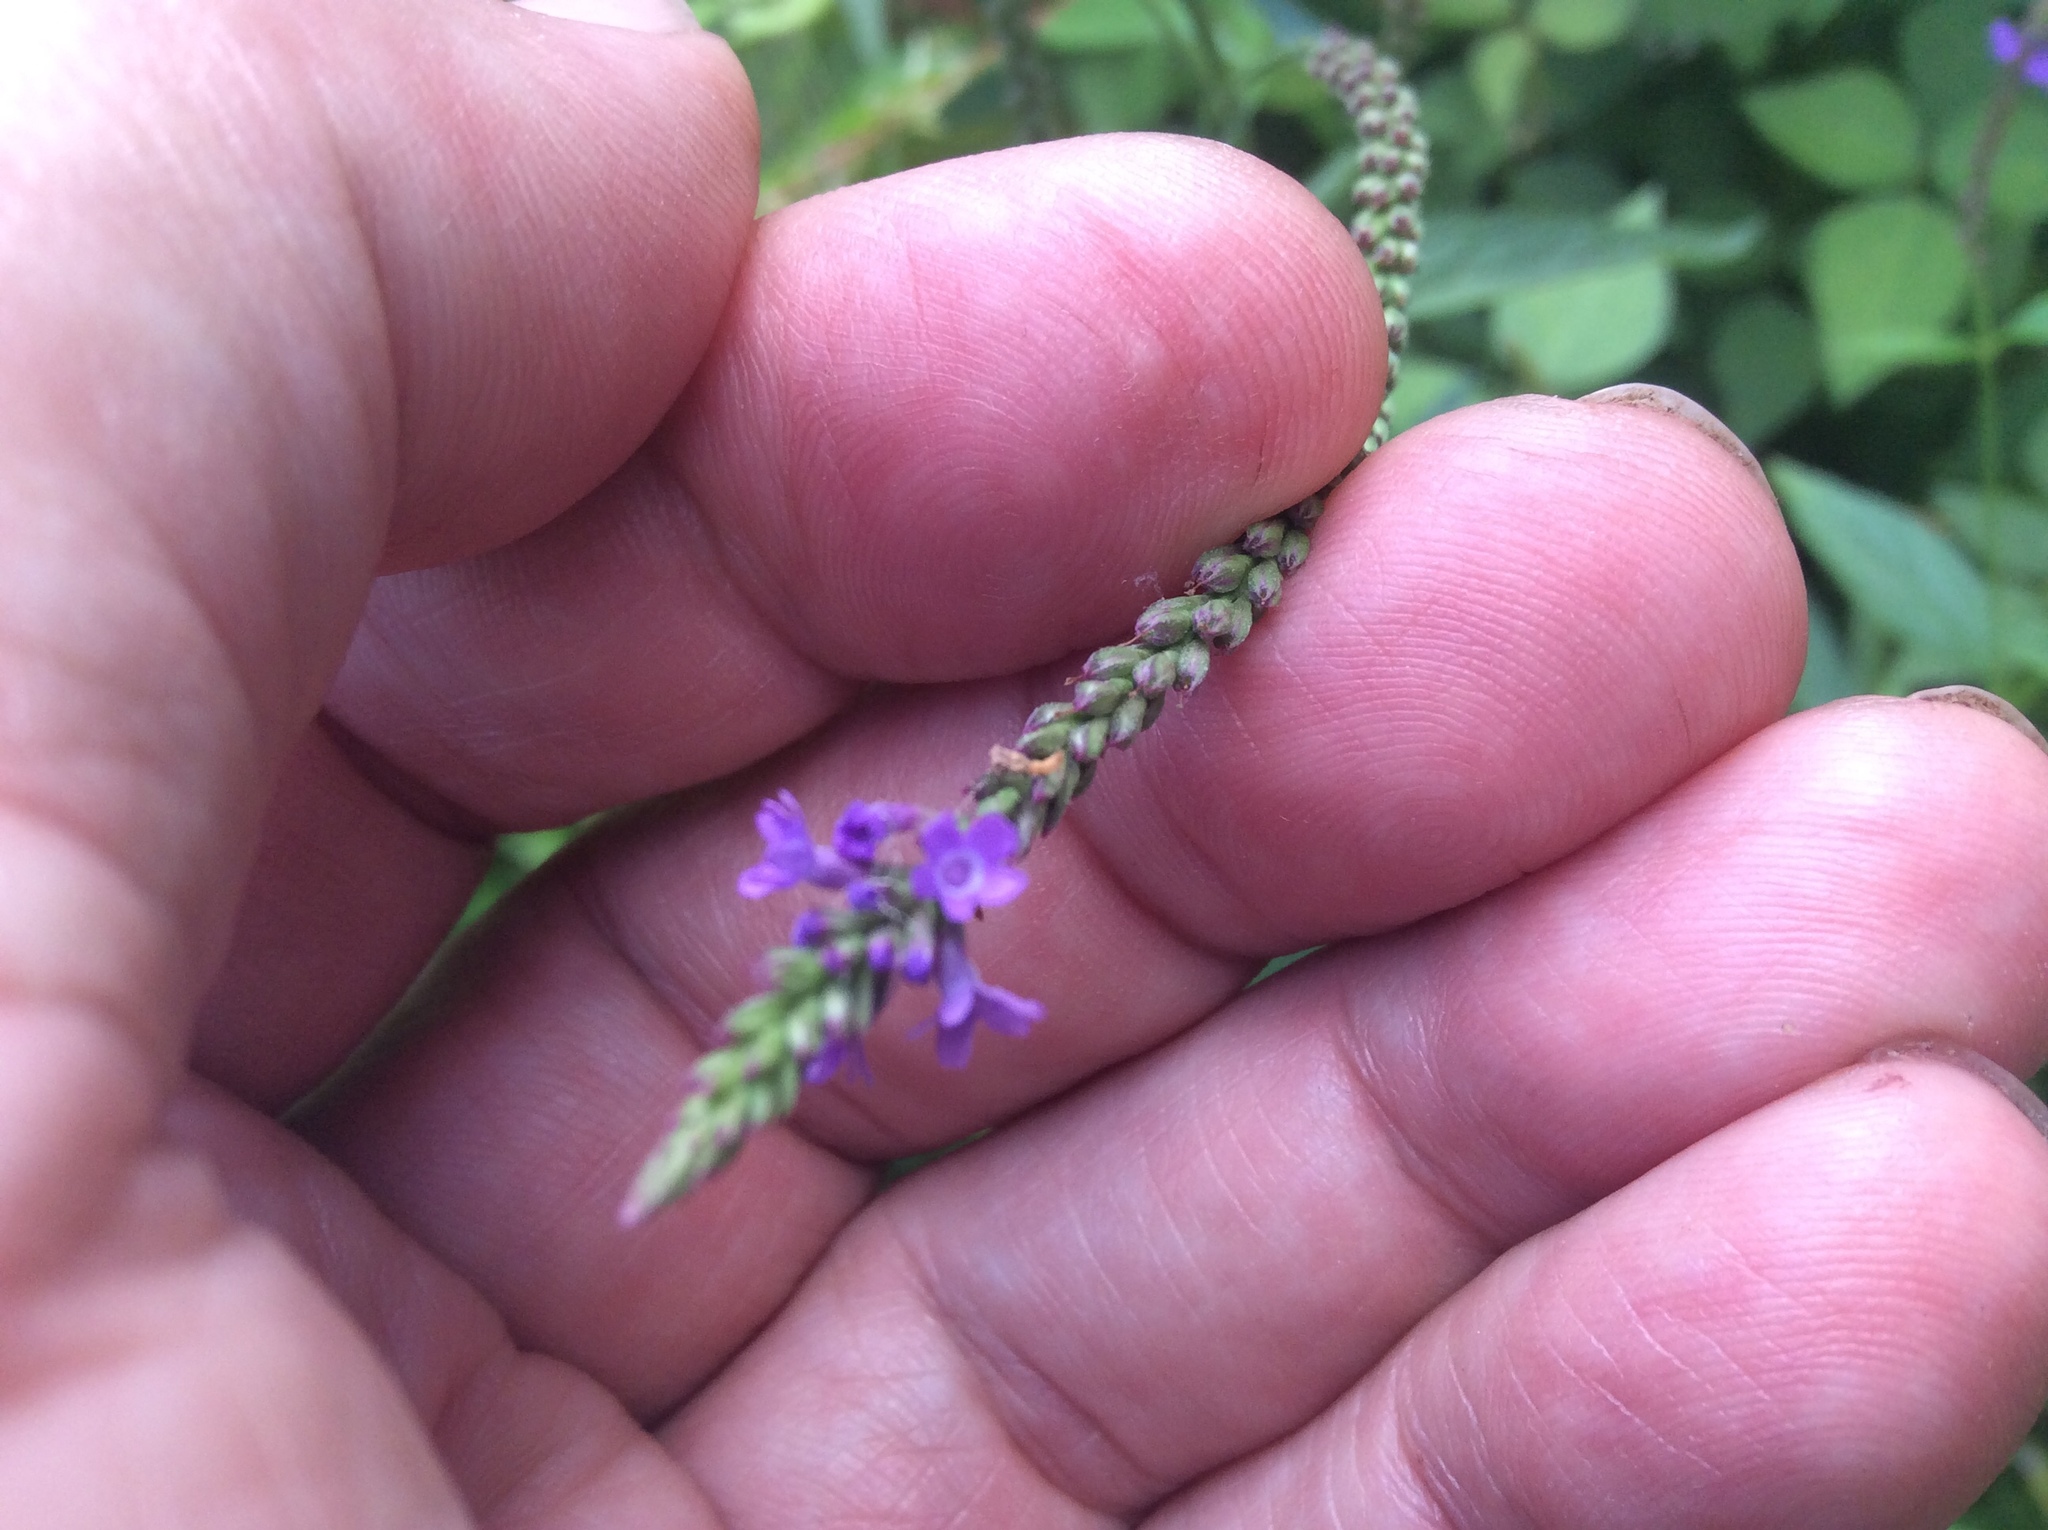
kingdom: Plantae
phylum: Tracheophyta
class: Magnoliopsida
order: Lamiales
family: Verbenaceae
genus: Verbena
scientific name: Verbena hastata
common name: American blue vervain
